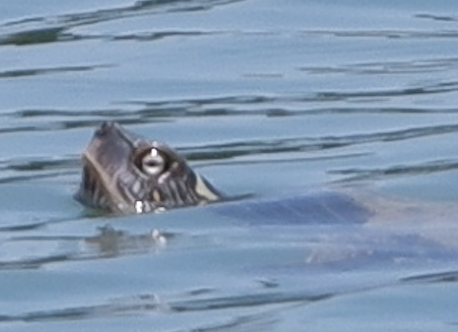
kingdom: Animalia
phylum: Chordata
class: Testudines
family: Emydidae
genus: Graptemys
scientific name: Graptemys versa
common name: Texas map turtle
